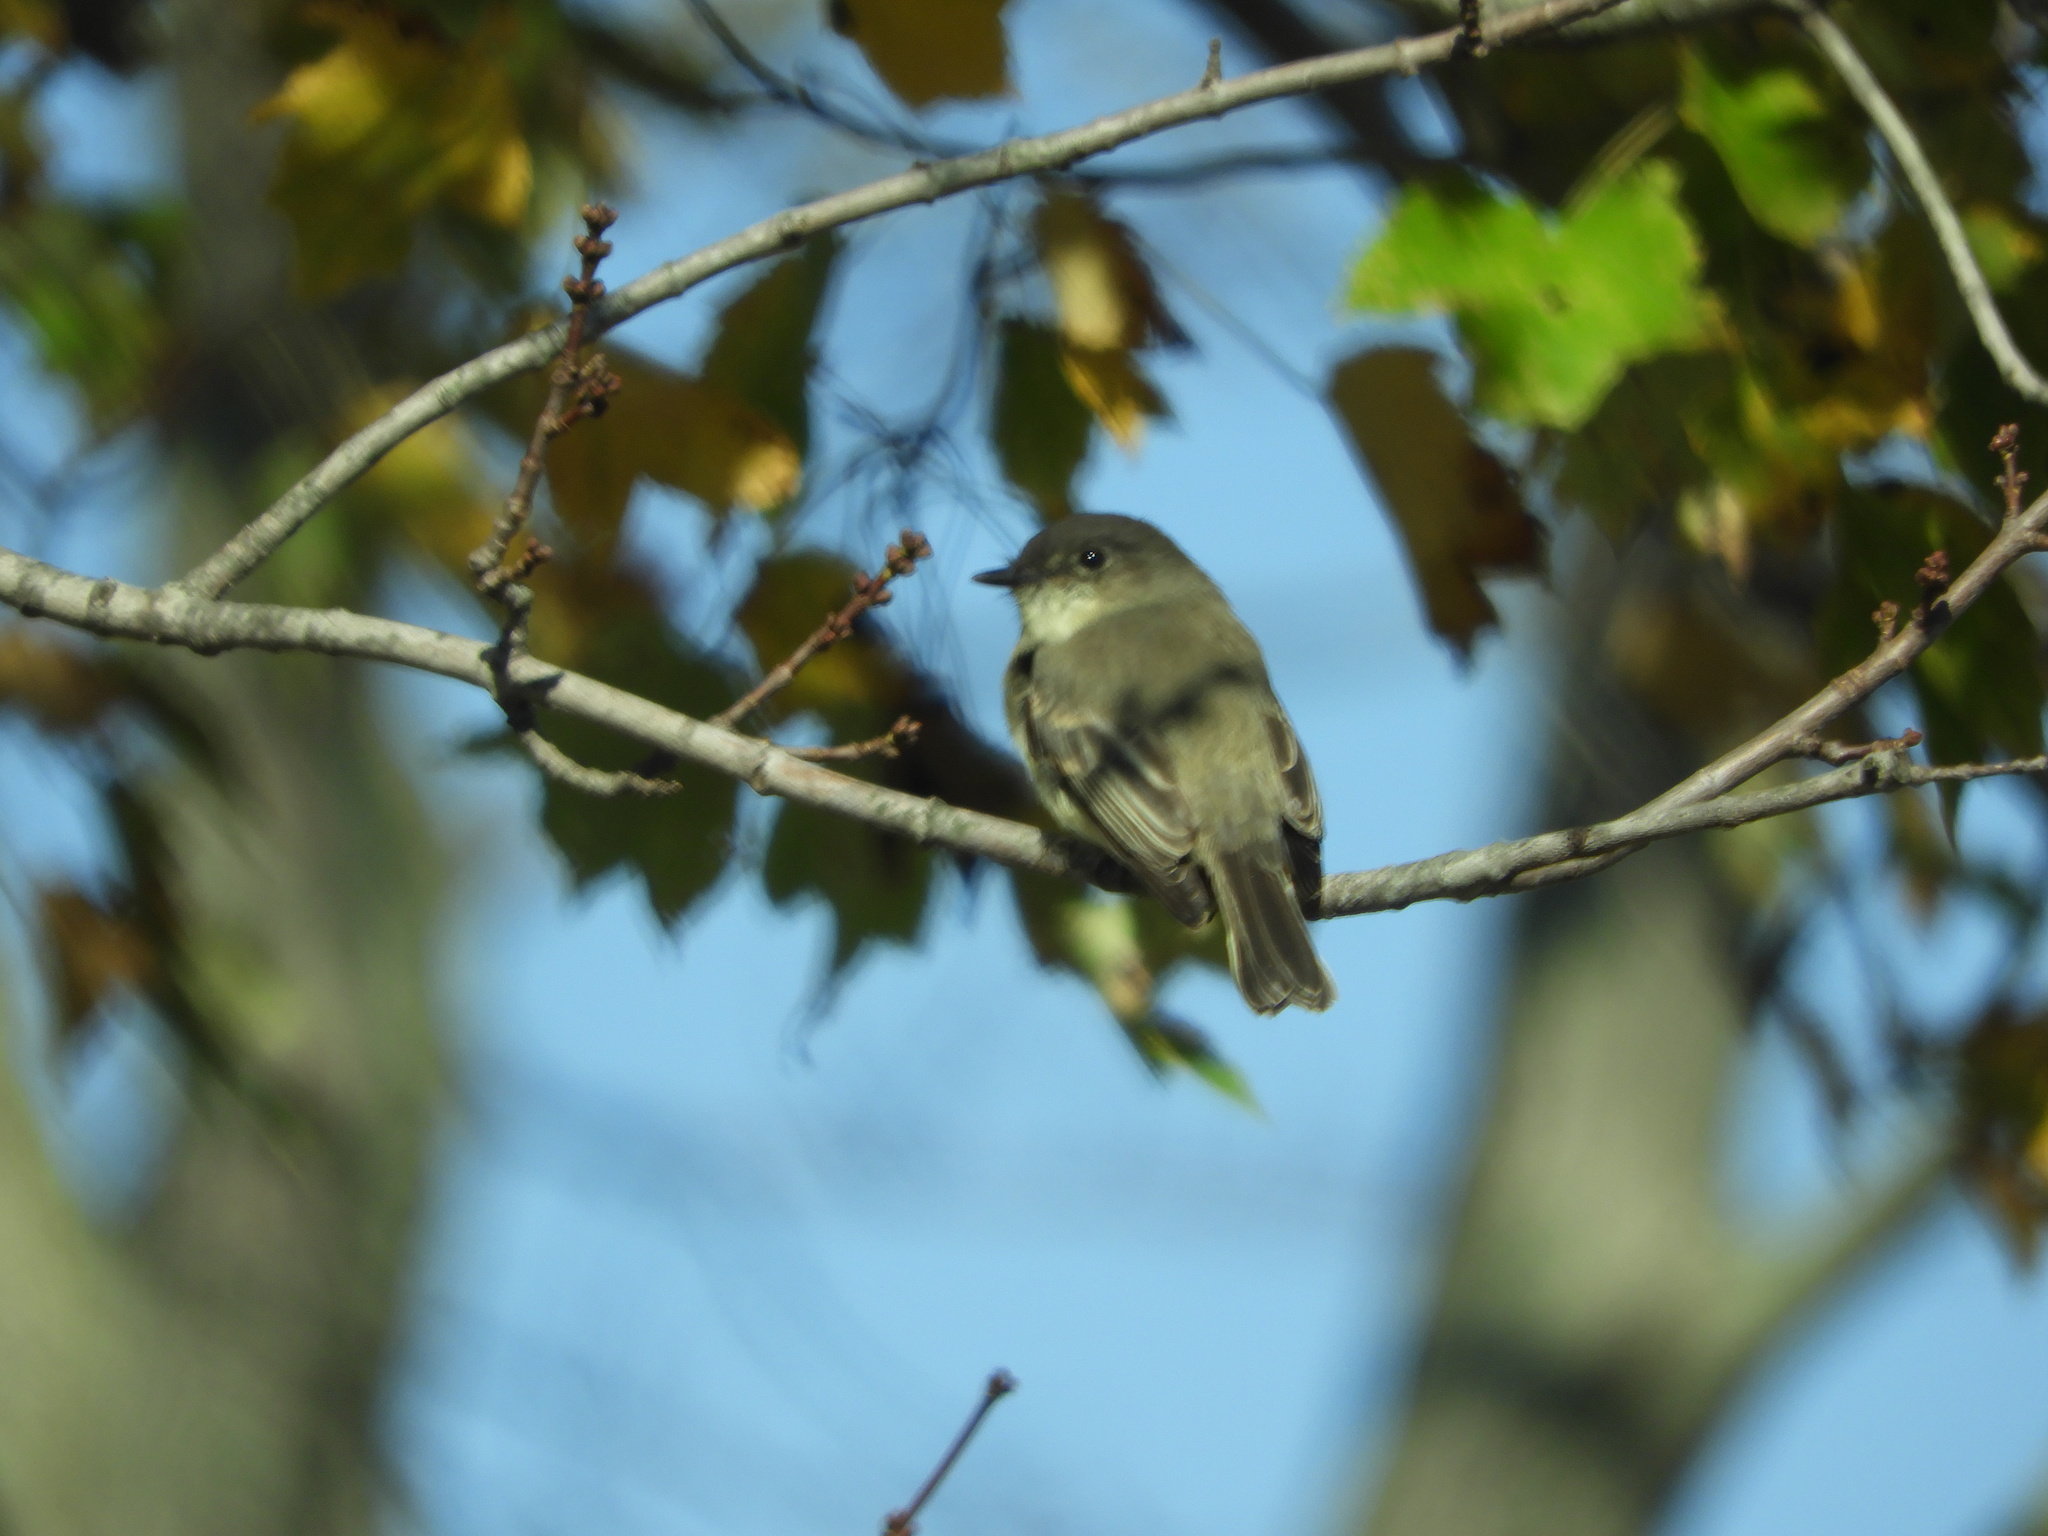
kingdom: Animalia
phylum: Chordata
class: Aves
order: Passeriformes
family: Tyrannidae
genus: Sayornis
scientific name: Sayornis phoebe
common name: Eastern phoebe
